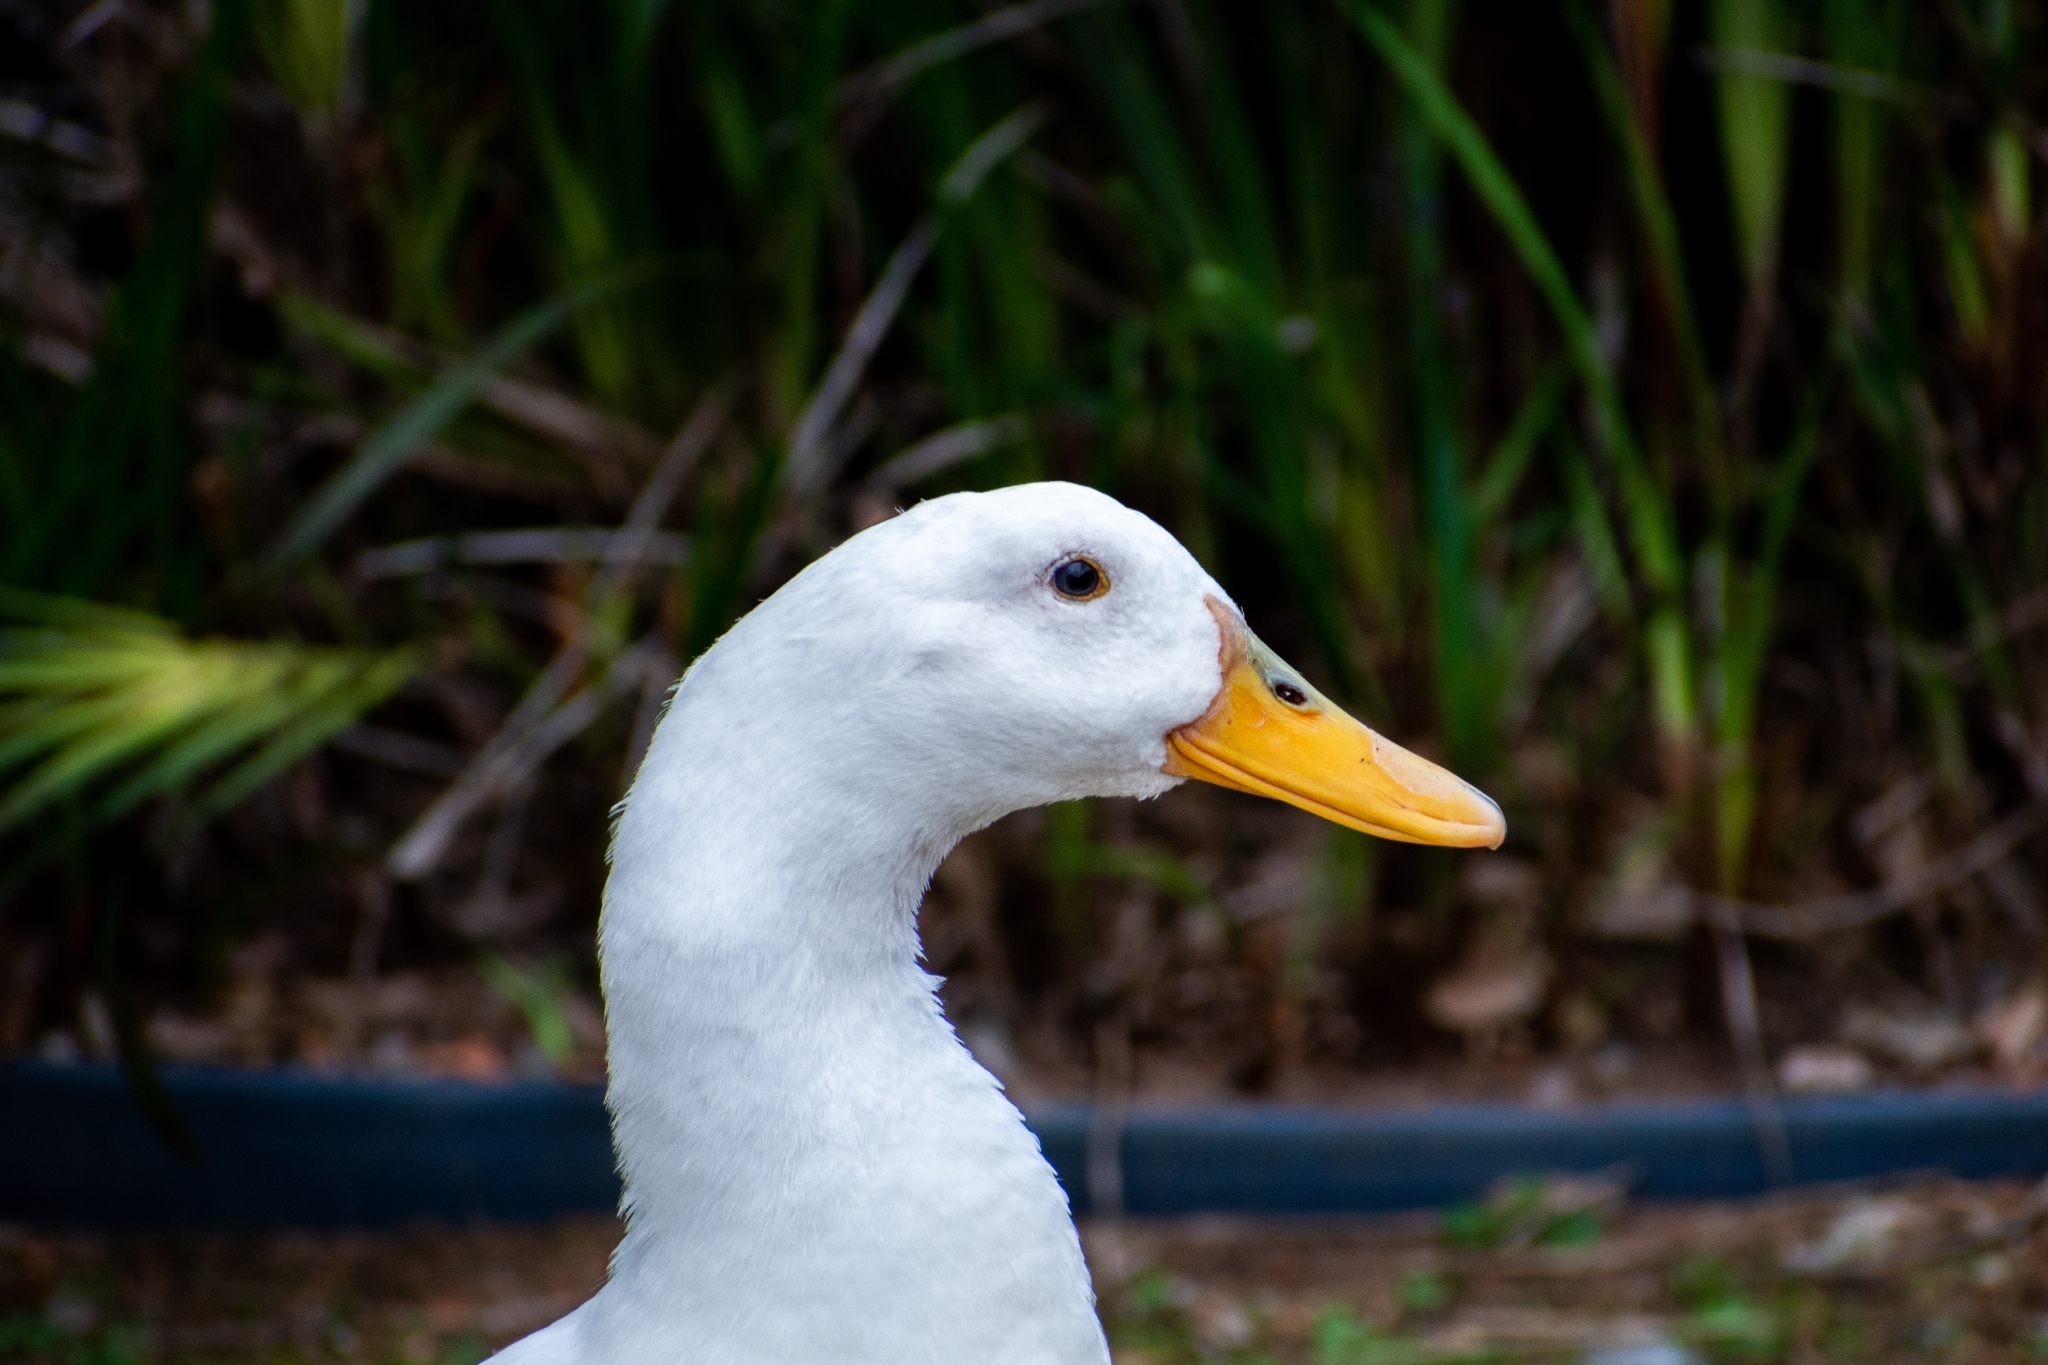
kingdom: Animalia
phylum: Chordata
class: Aves
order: Anseriformes
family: Anatidae
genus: Anas
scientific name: Anas platyrhynchos
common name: Mallard
